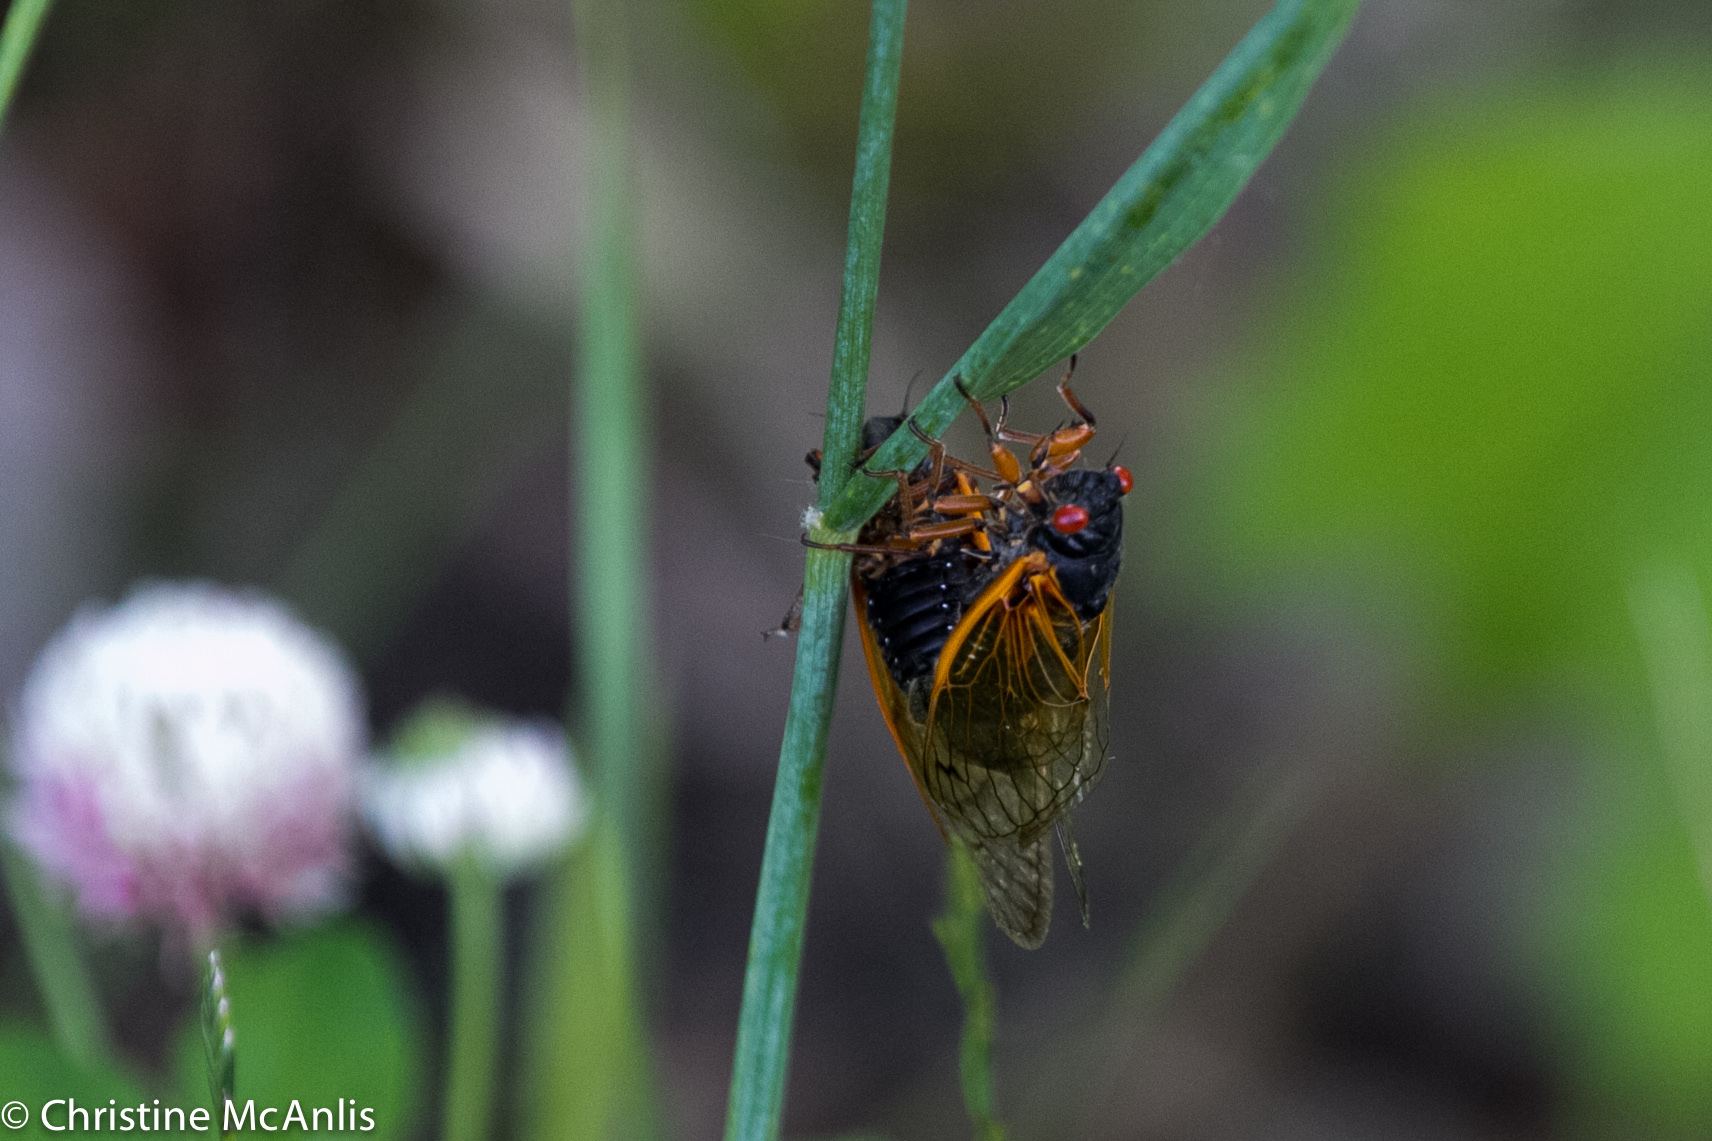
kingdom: Animalia
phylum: Arthropoda
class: Insecta
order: Hemiptera
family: Cicadidae
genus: Magicicada
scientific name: Magicicada cassini
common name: Cassin's 17-year cicada
